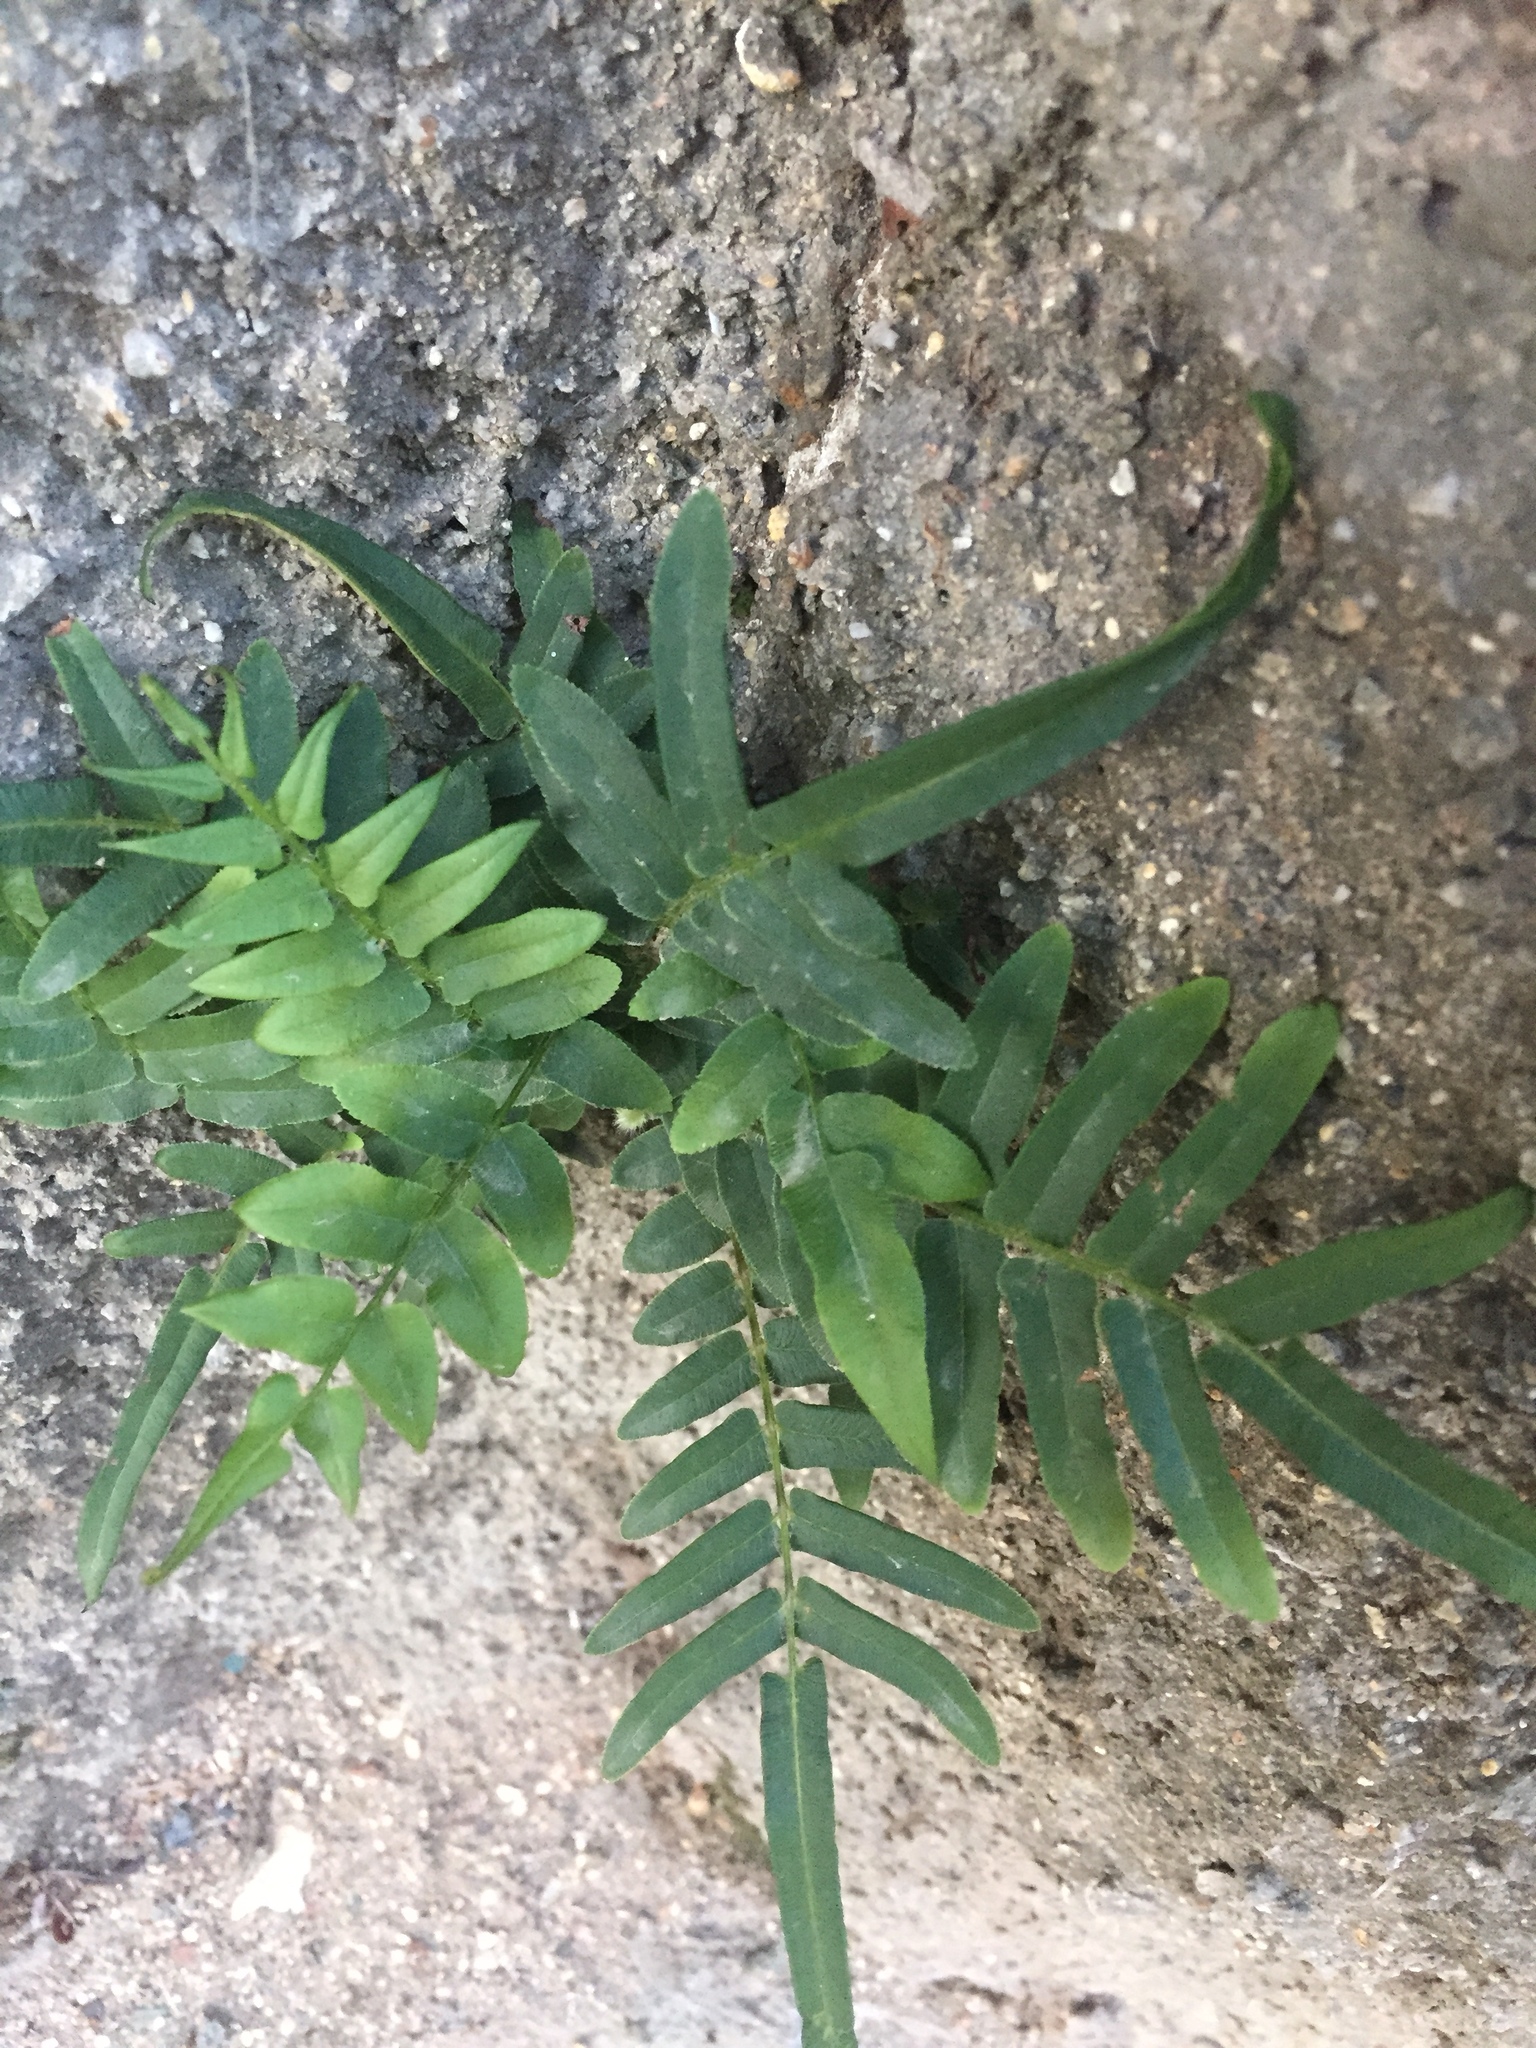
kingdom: Plantae
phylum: Tracheophyta
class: Polypodiopsida
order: Polypodiales
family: Pteridaceae
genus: Pteris
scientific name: Pteris vittata
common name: Ladder brake
